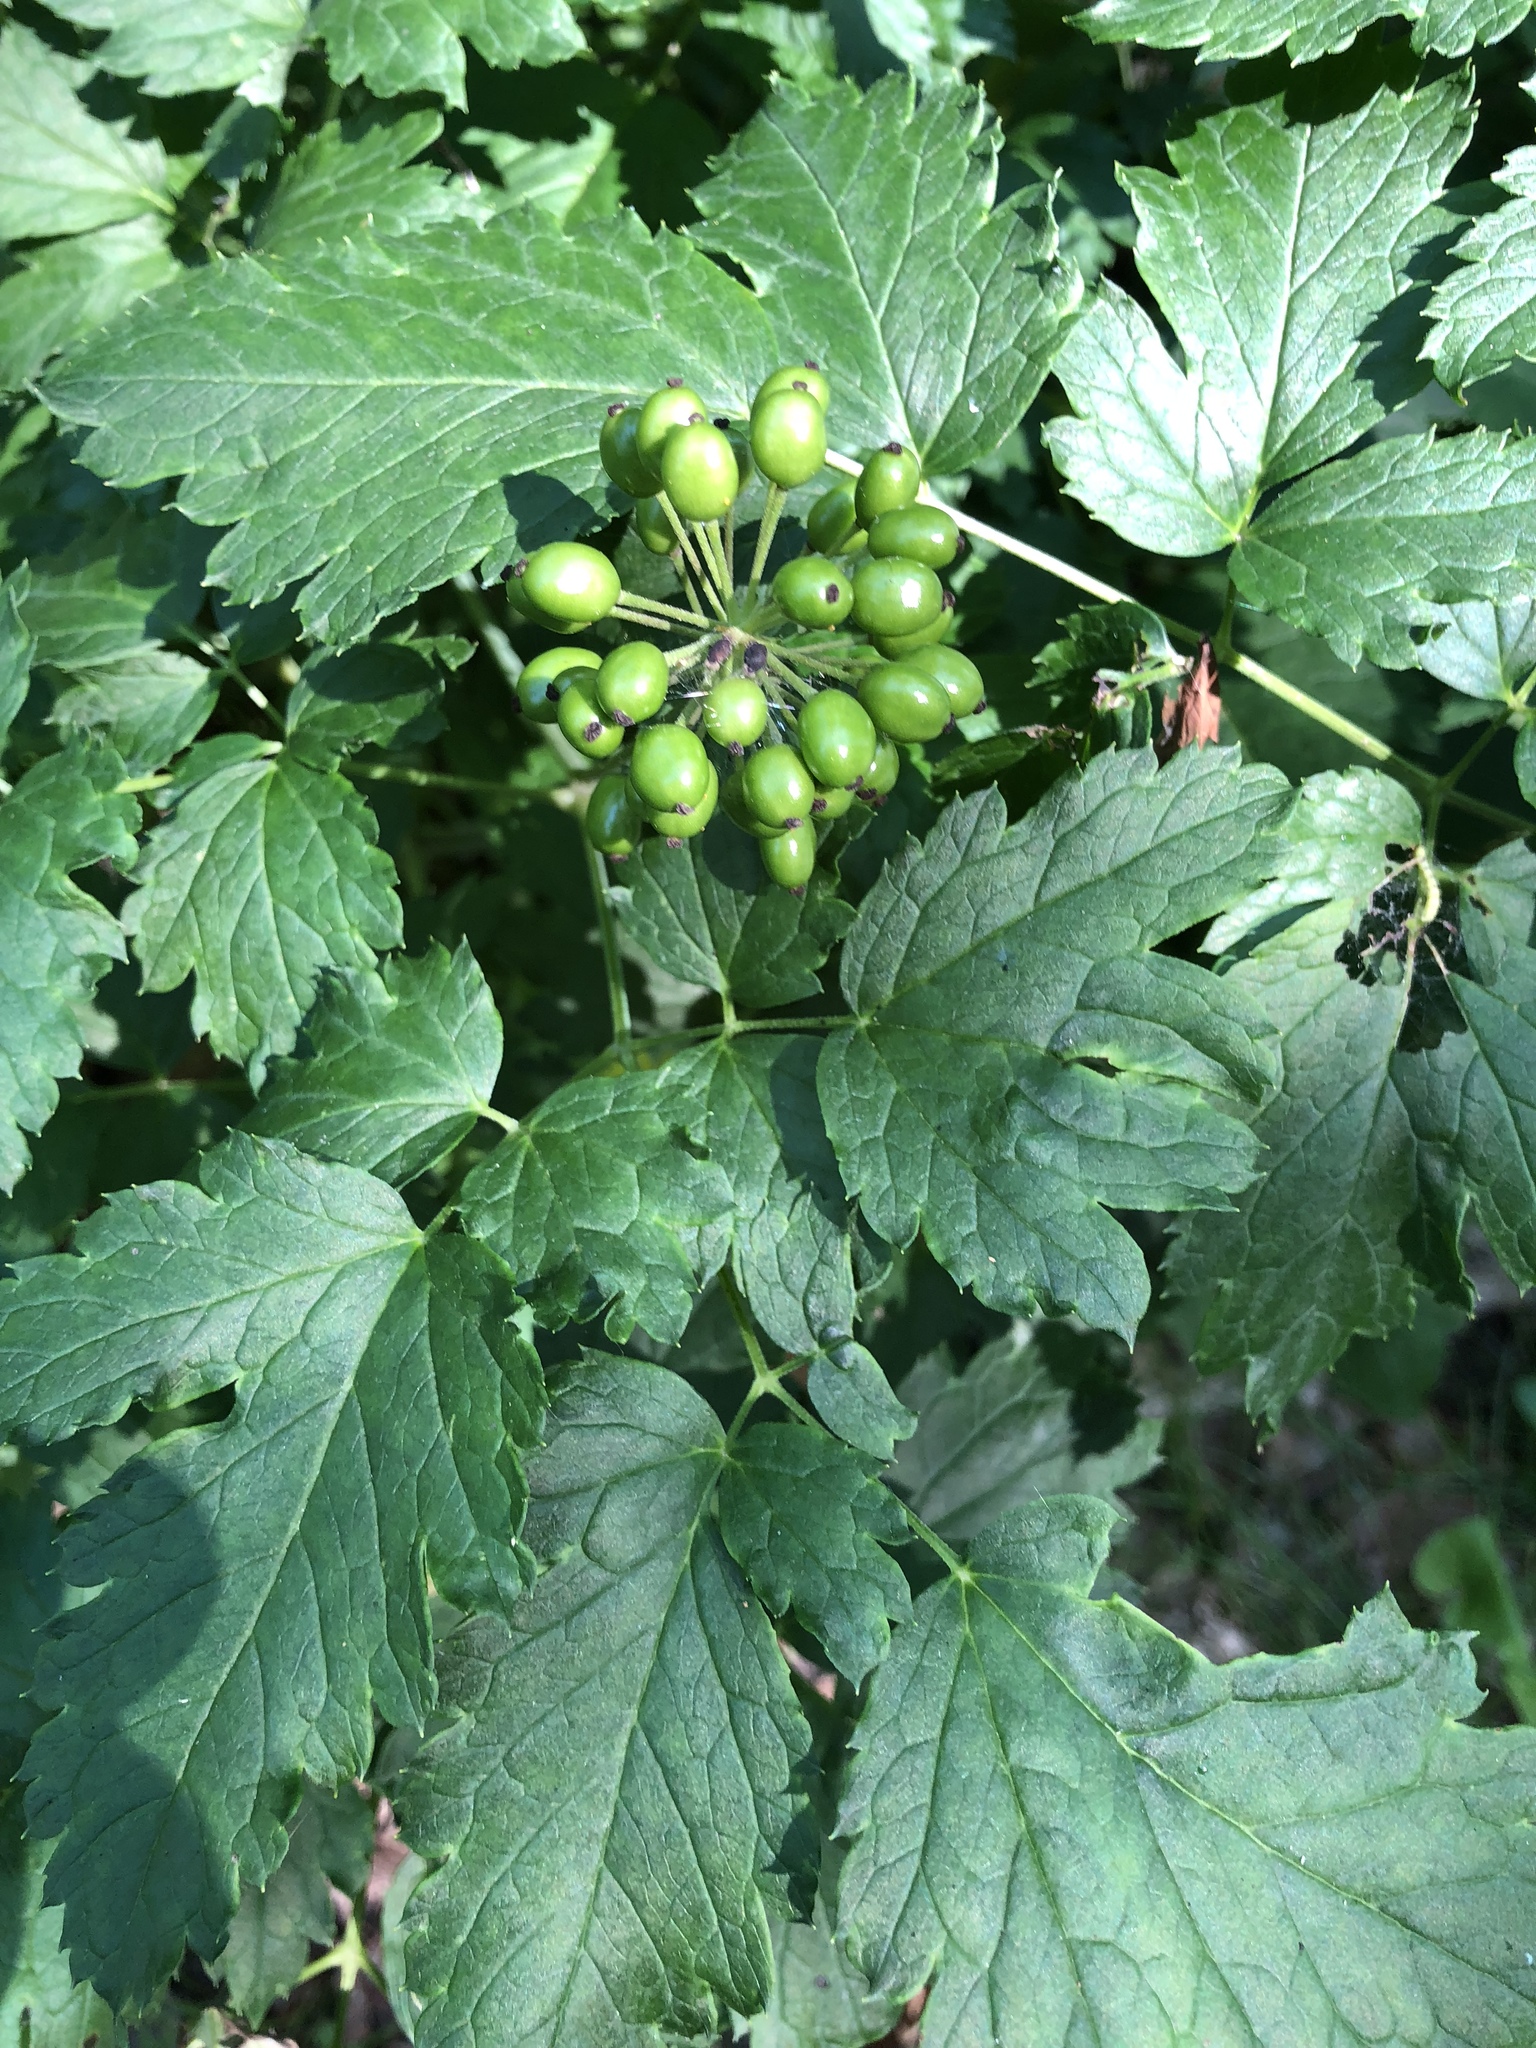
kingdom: Plantae
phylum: Tracheophyta
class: Magnoliopsida
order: Ranunculales
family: Ranunculaceae
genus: Actaea
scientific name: Actaea rubra
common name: Red baneberry
